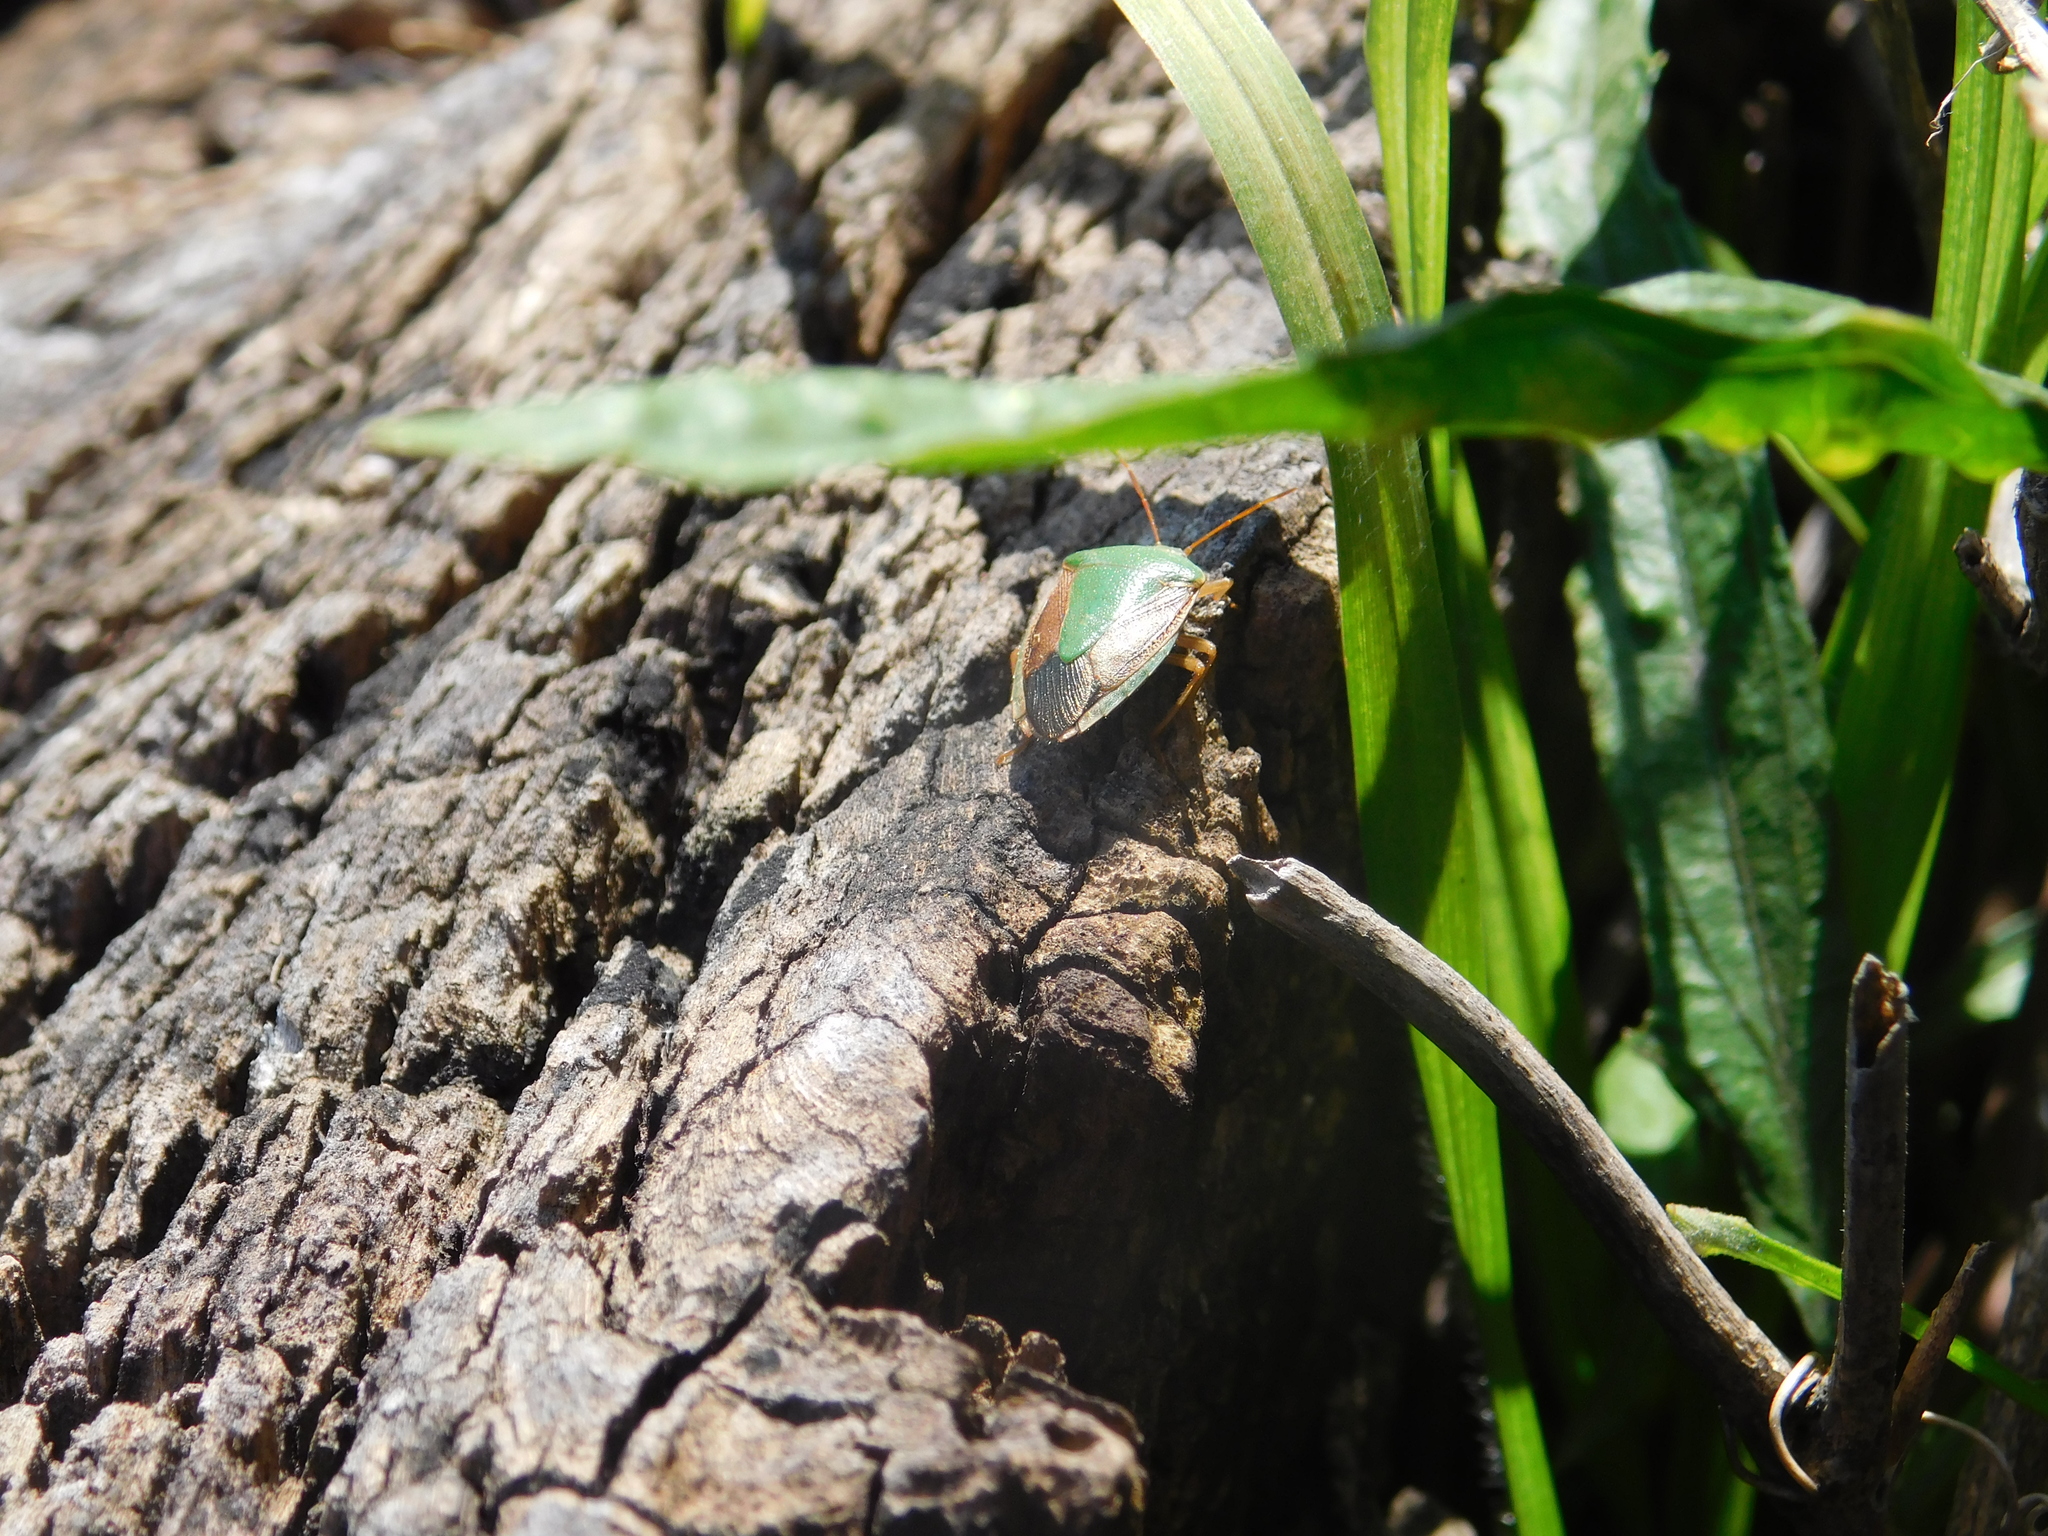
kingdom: Animalia
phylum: Arthropoda
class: Insecta
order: Hemiptera
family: Pentatomidae
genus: Edessa
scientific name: Edessa meditabunda
